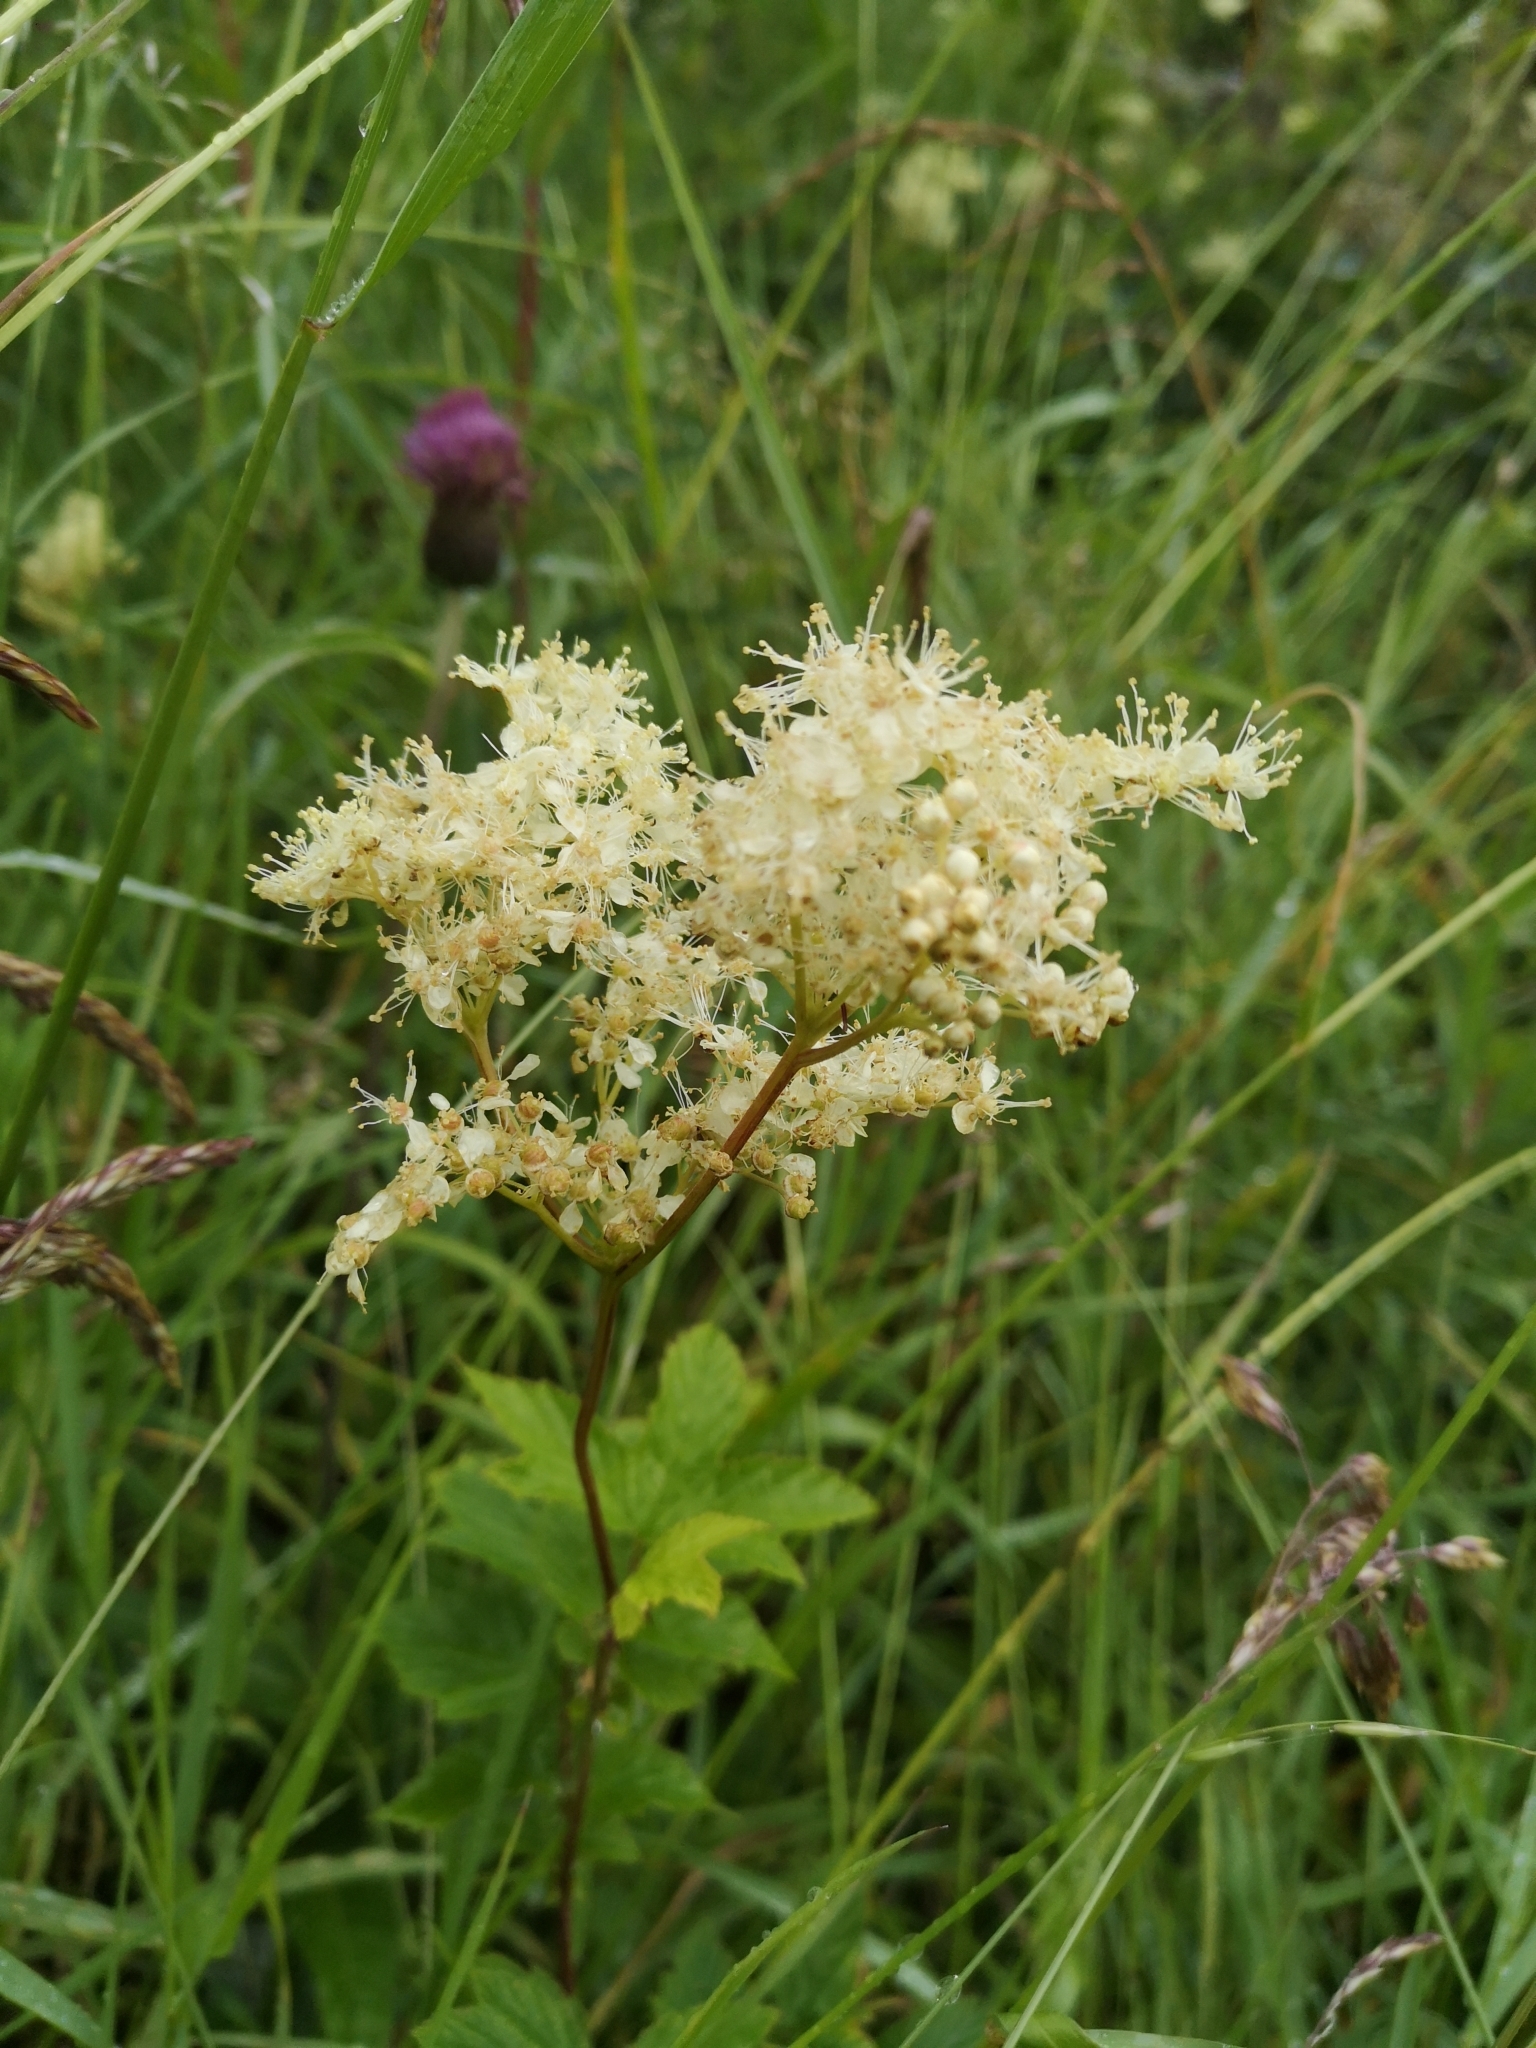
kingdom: Plantae
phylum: Tracheophyta
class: Magnoliopsida
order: Rosales
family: Rosaceae
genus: Filipendula
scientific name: Filipendula ulmaria
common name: Meadowsweet
